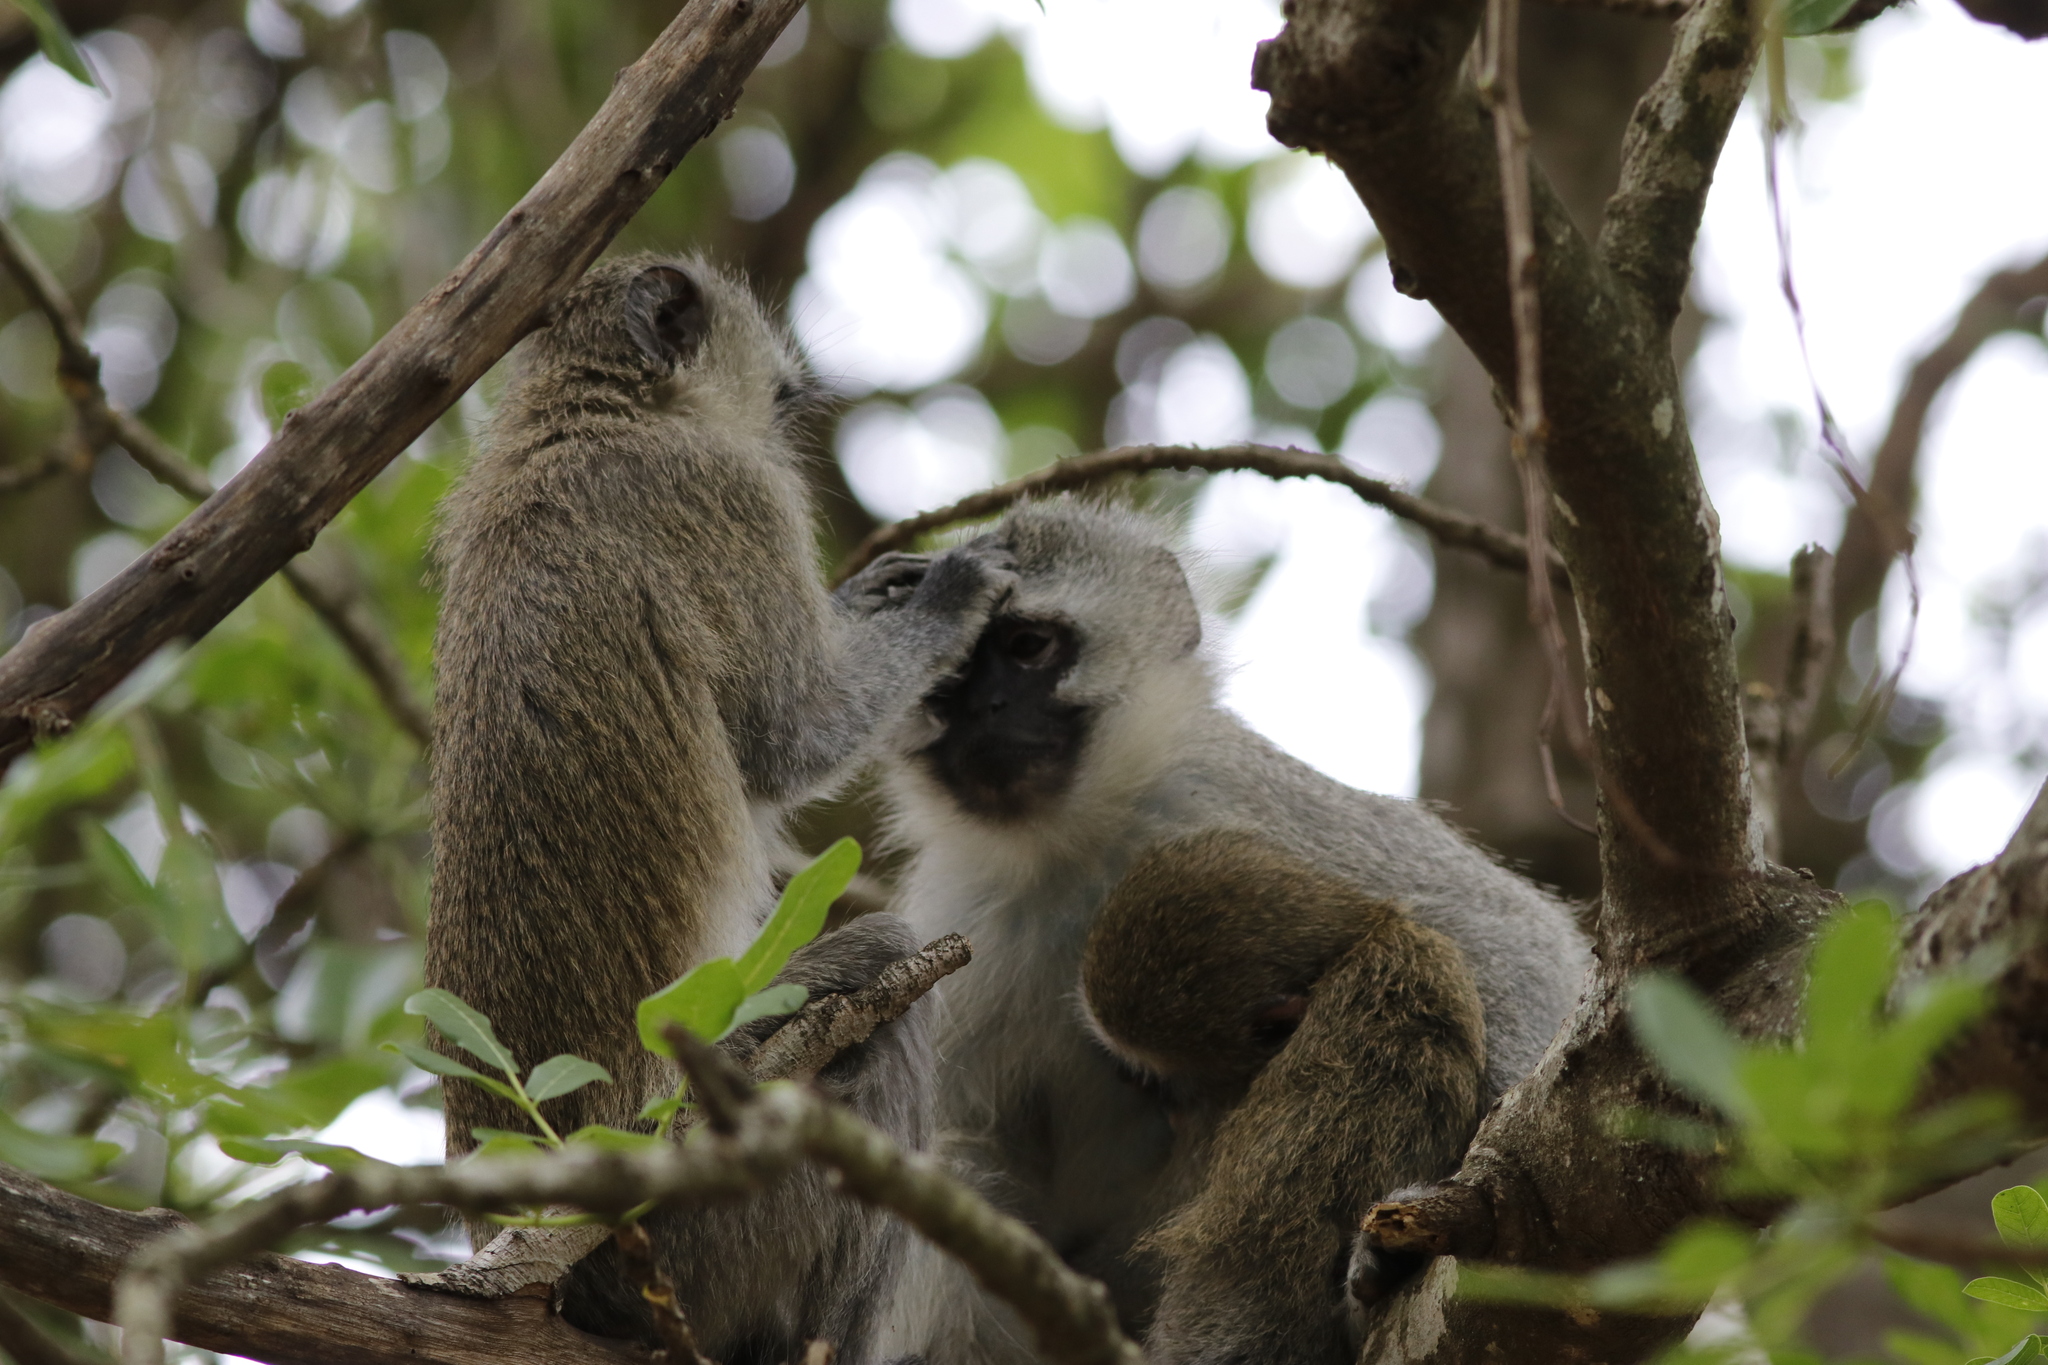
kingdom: Animalia
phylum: Chordata
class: Mammalia
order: Primates
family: Cercopithecidae
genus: Chlorocebus
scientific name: Chlorocebus pygerythrus
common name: Vervet monkey
